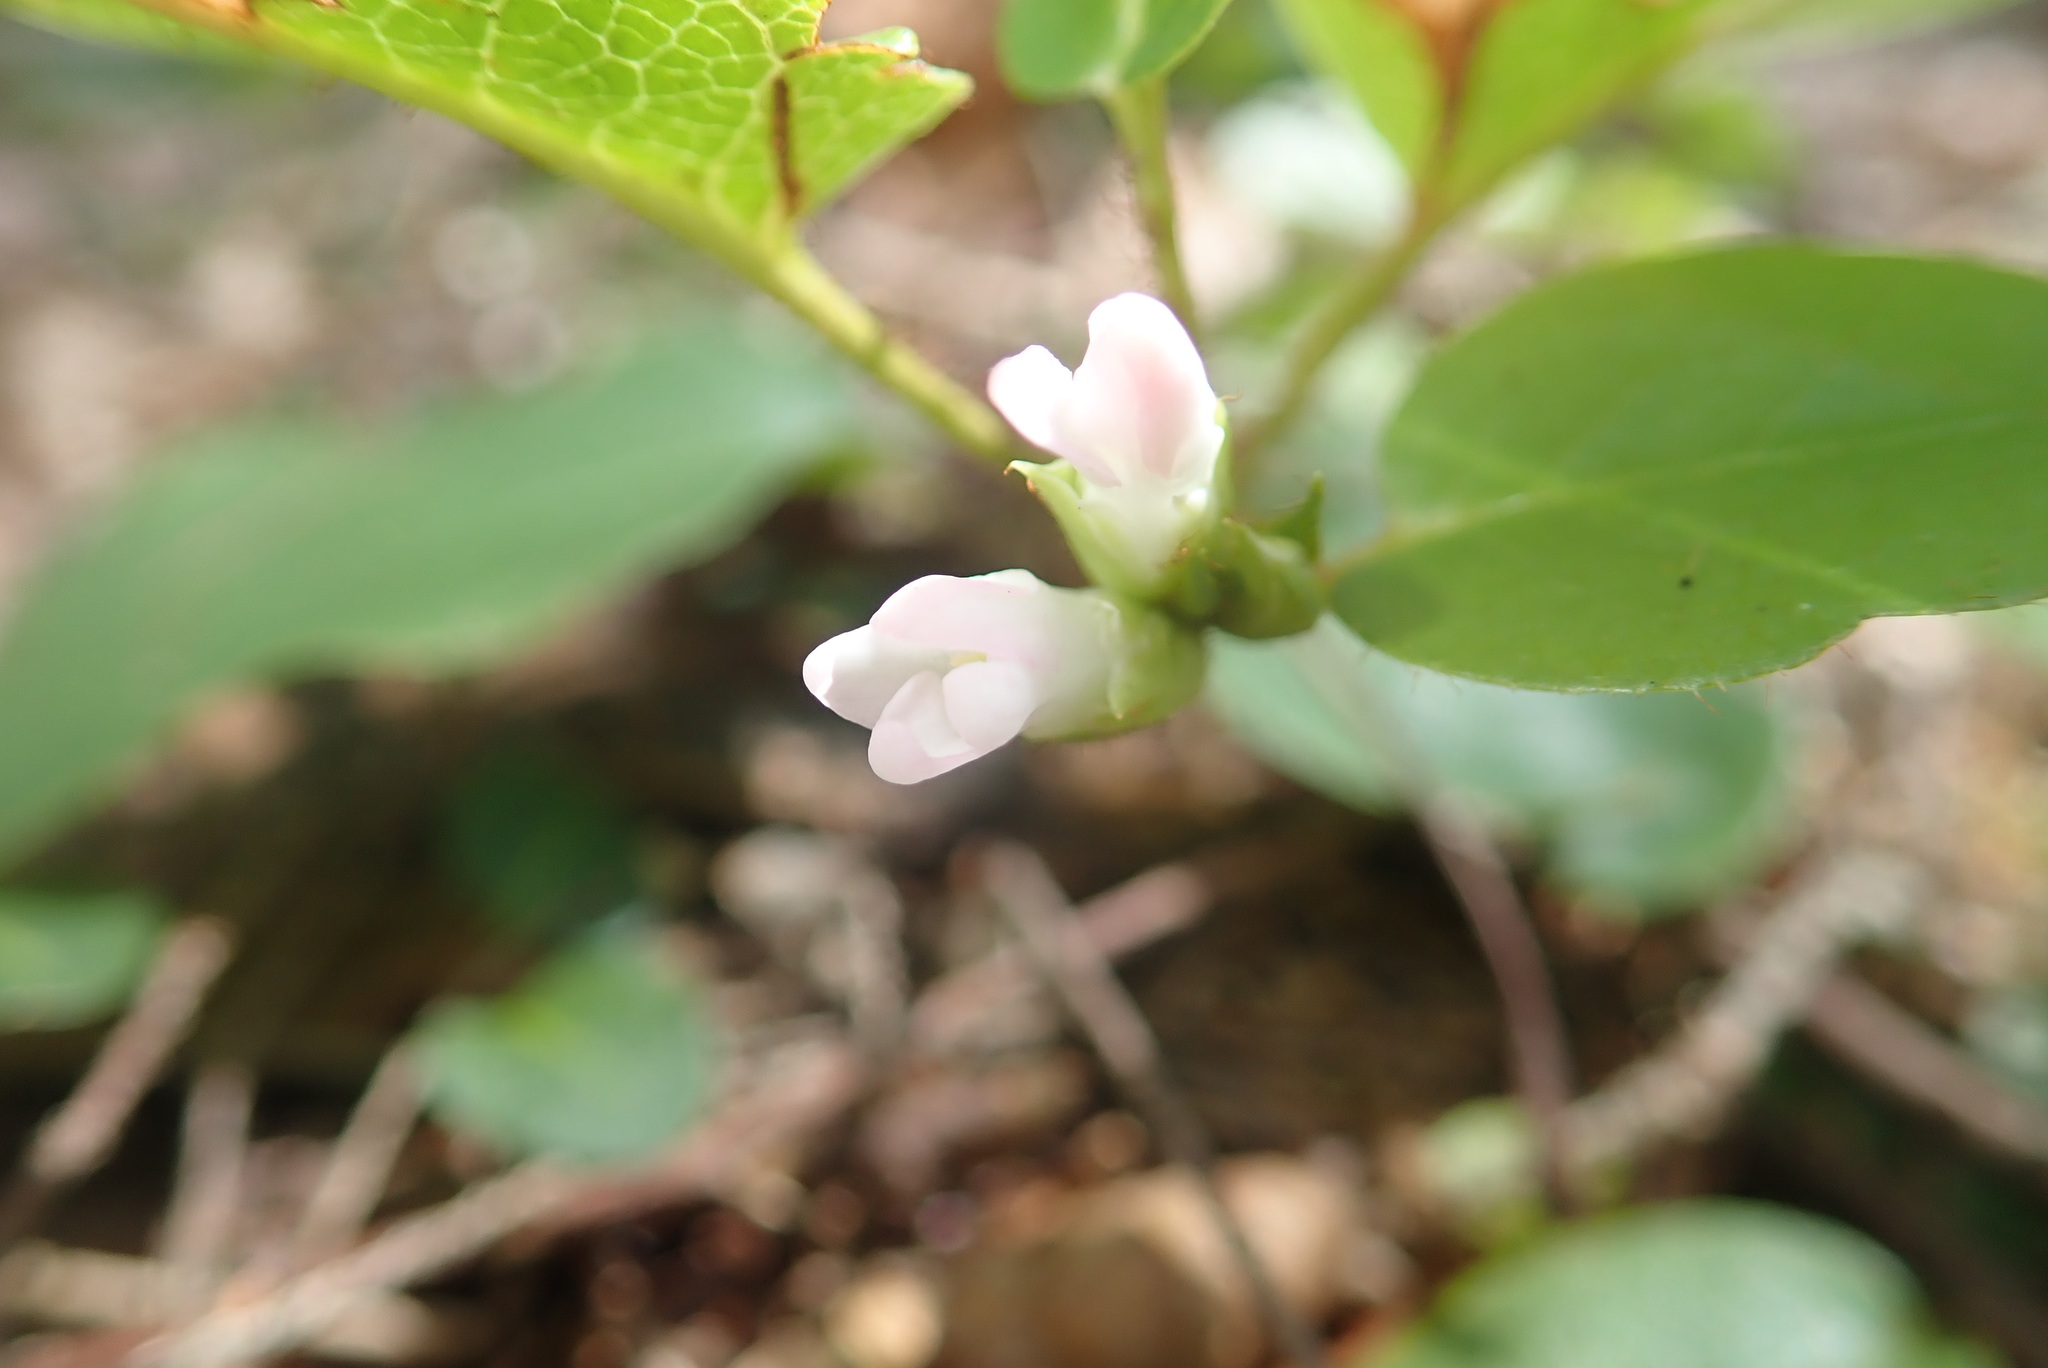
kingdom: Plantae
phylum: Tracheophyta
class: Magnoliopsida
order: Ericales
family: Ericaceae
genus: Epigaea
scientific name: Epigaea repens
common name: Gravelroot
